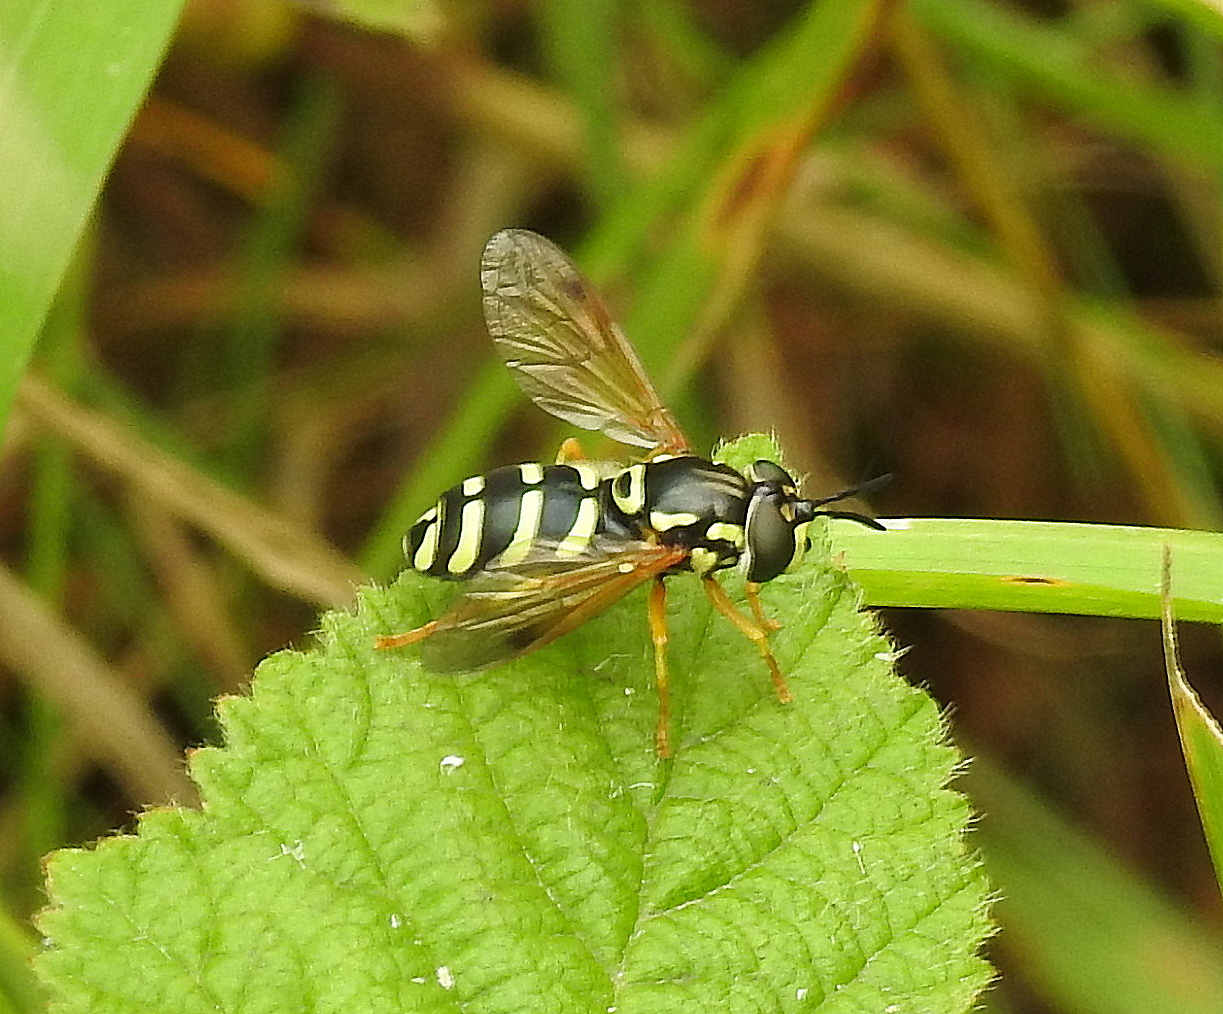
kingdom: Animalia
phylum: Arthropoda
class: Insecta
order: Diptera
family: Syrphidae
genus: Chrysotoxum
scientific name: Chrysotoxum festivum
